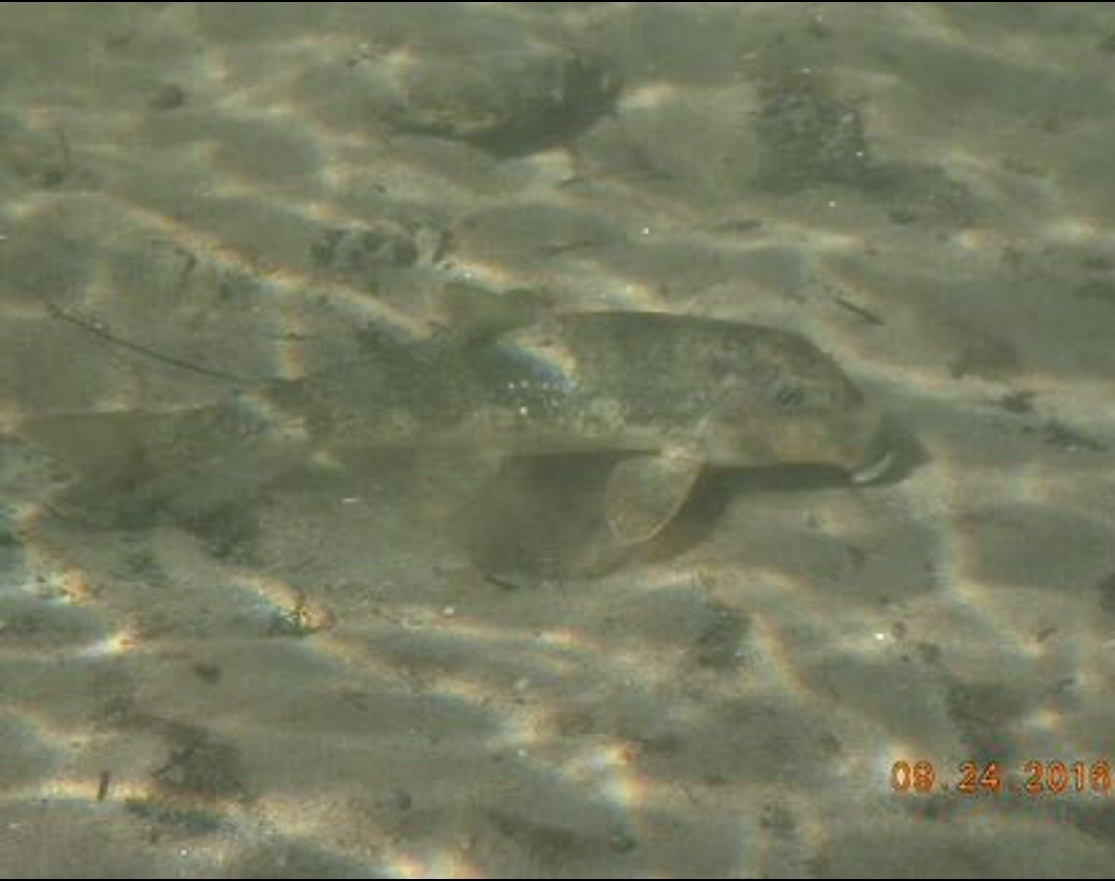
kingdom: Animalia
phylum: Chordata
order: Cypriniformes
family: Catostomidae
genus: Hypentelium
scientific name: Hypentelium nigricans
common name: Northern hog sucker
